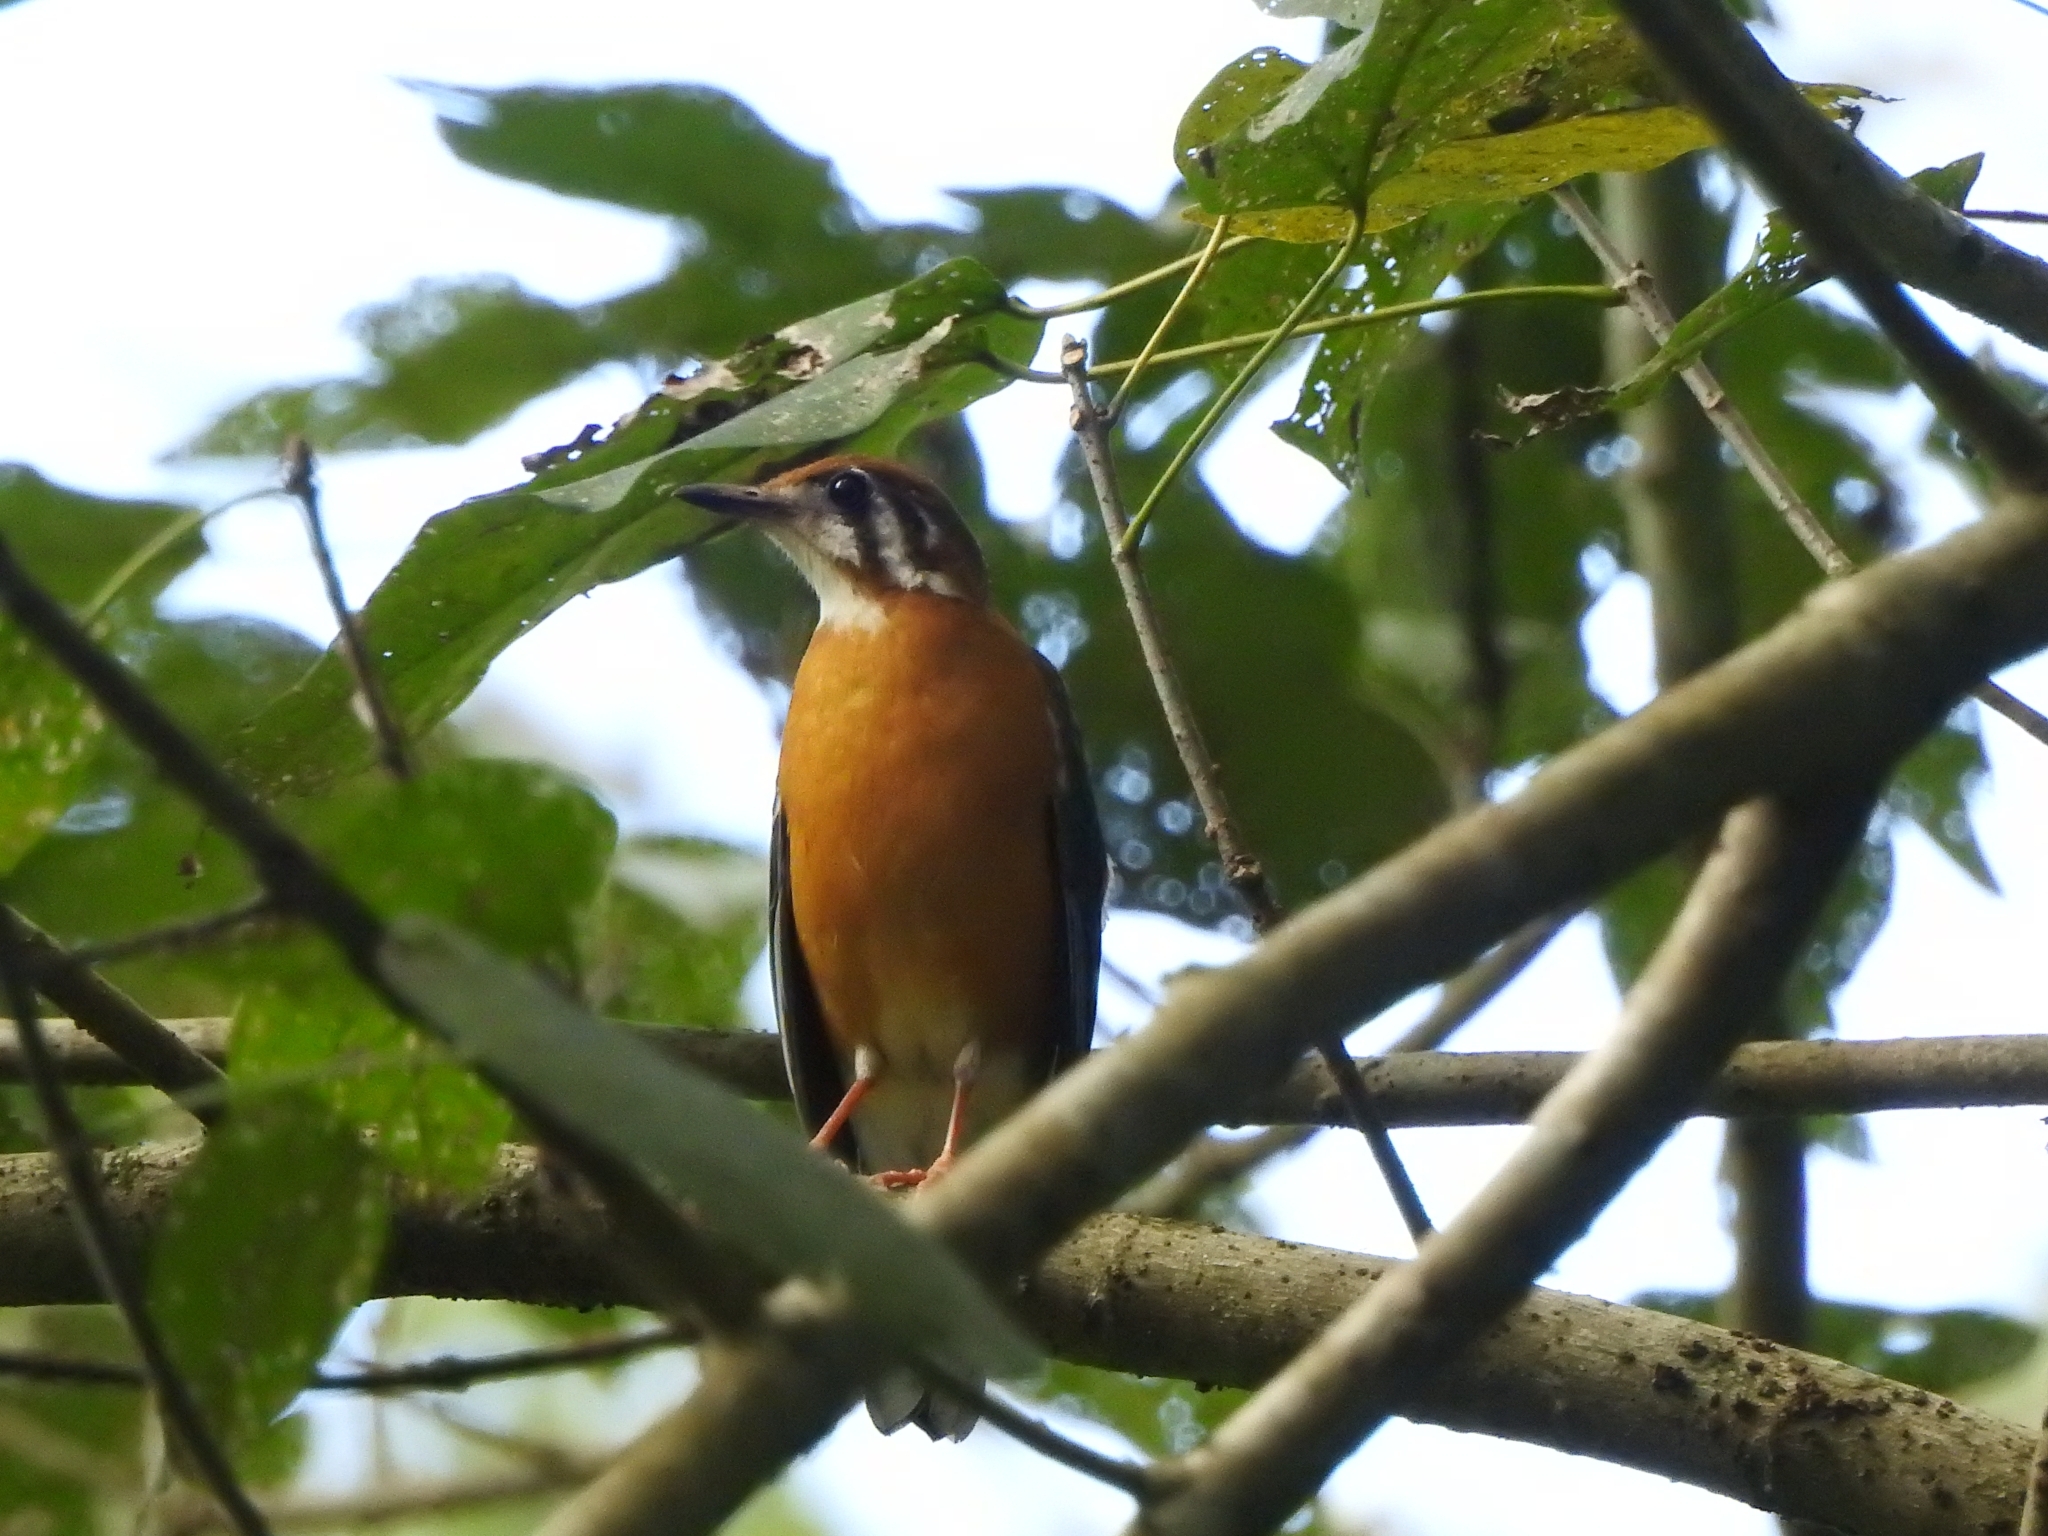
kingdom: Animalia
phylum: Chordata
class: Aves
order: Passeriformes
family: Turdidae
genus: Geokichla
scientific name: Geokichla citrina
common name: Orange-headed thrush
